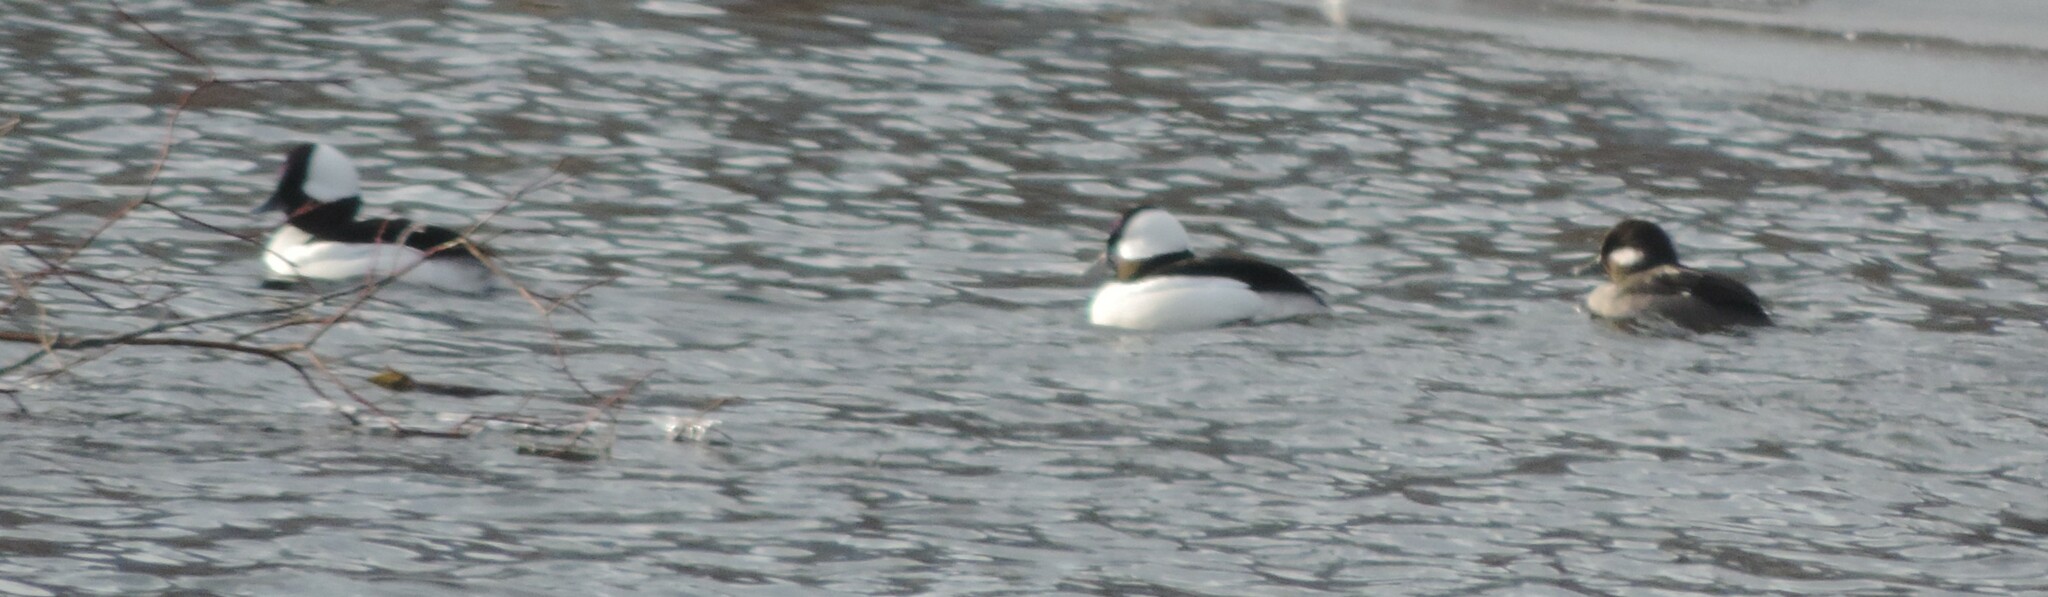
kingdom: Animalia
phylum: Chordata
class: Aves
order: Anseriformes
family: Anatidae
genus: Bucephala
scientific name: Bucephala albeola
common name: Bufflehead
